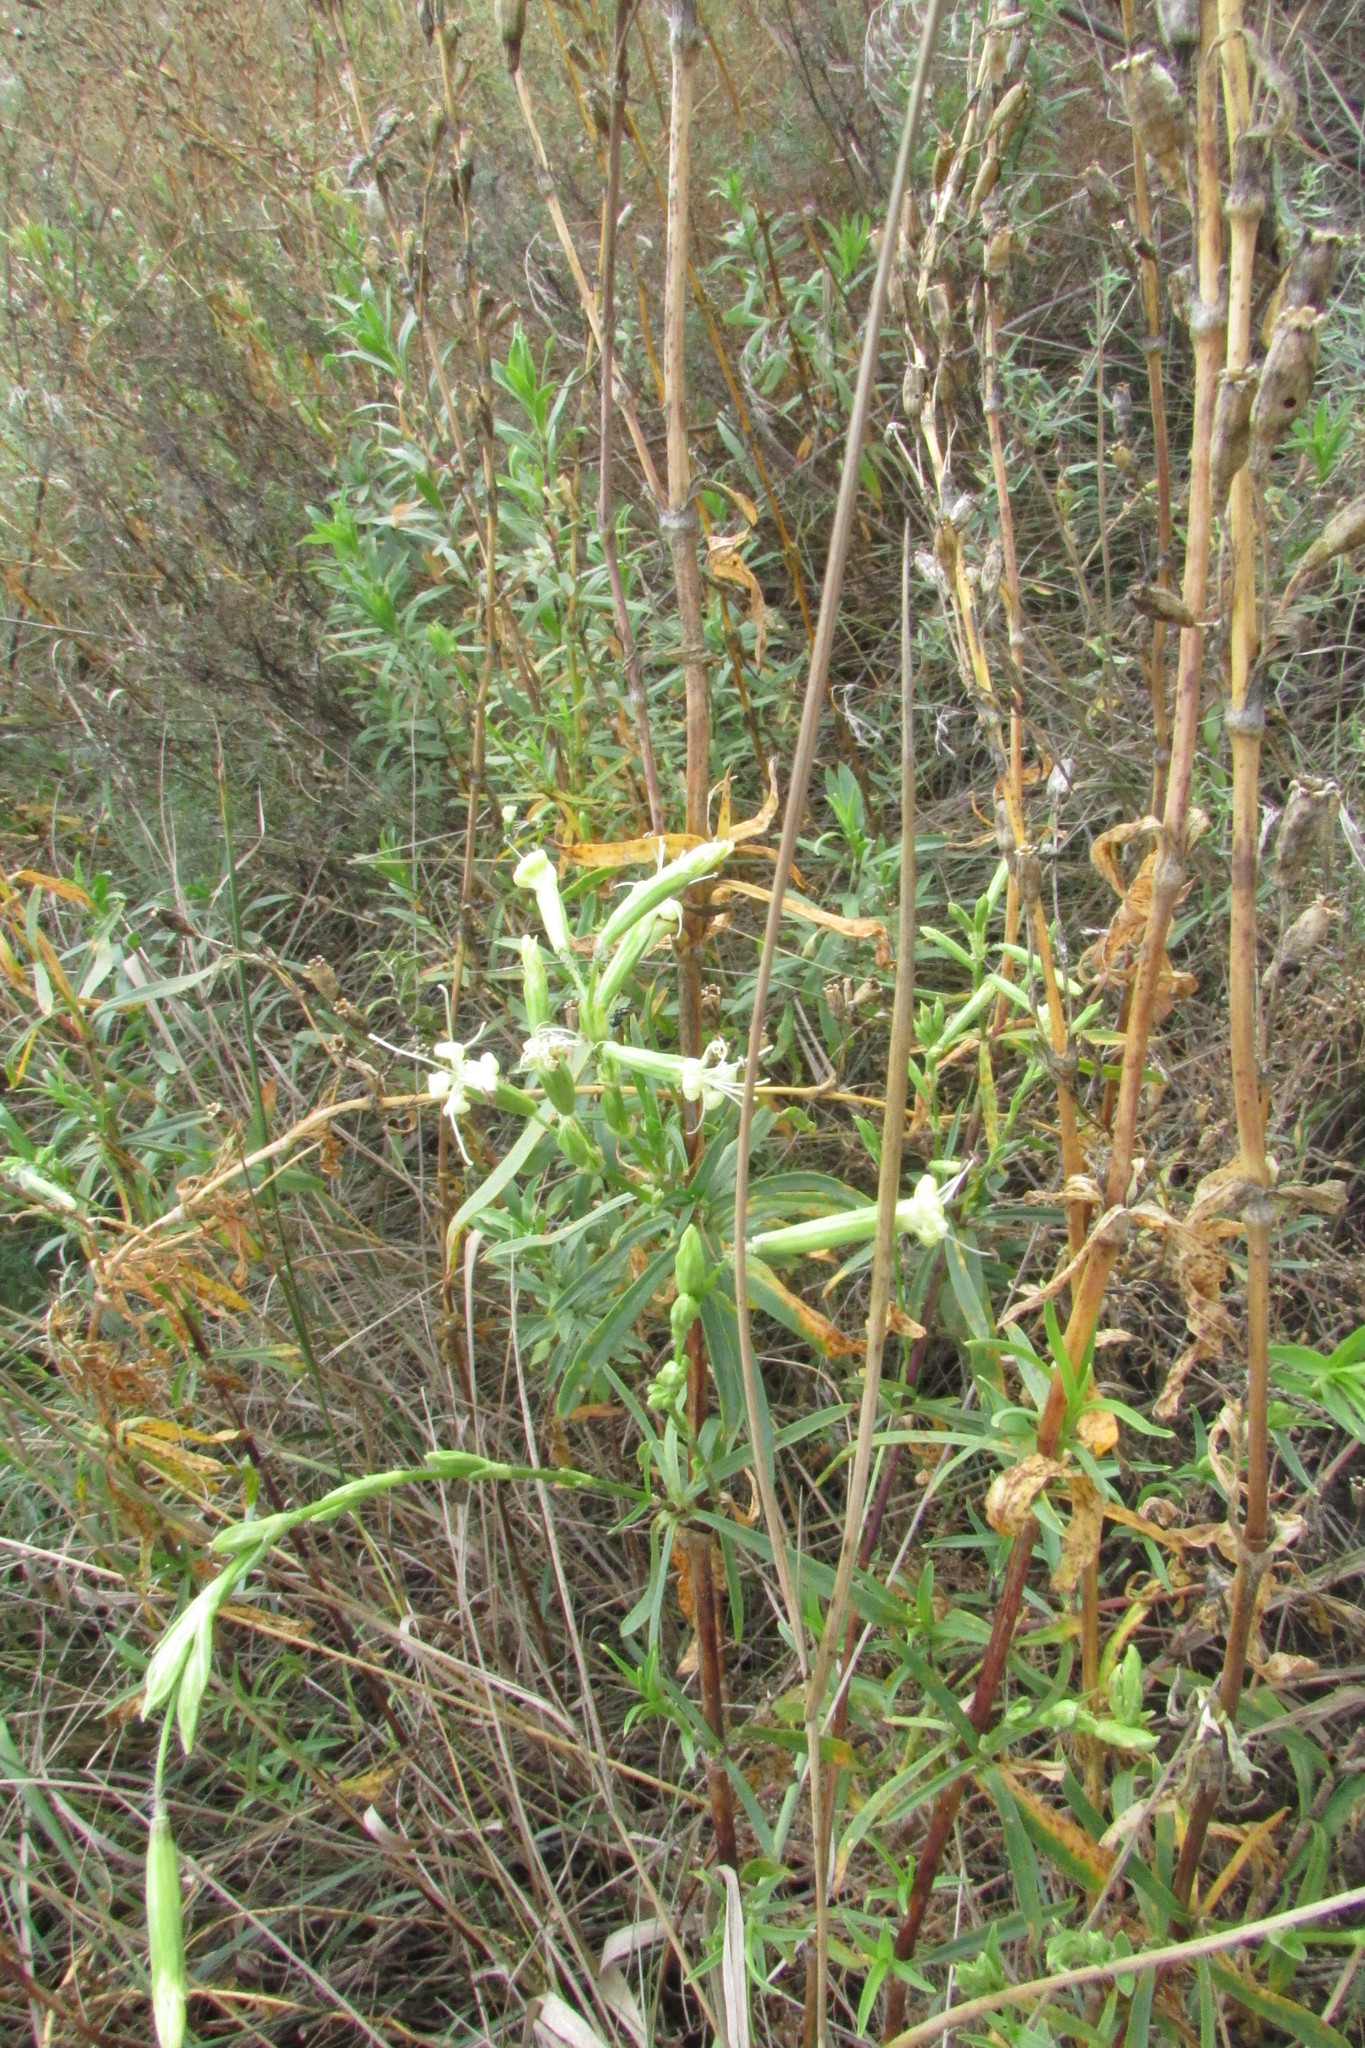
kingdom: Plantae
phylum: Tracheophyta
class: Magnoliopsida
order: Caryophyllales
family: Caryophyllaceae
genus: Silene
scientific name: Silene tatarica
